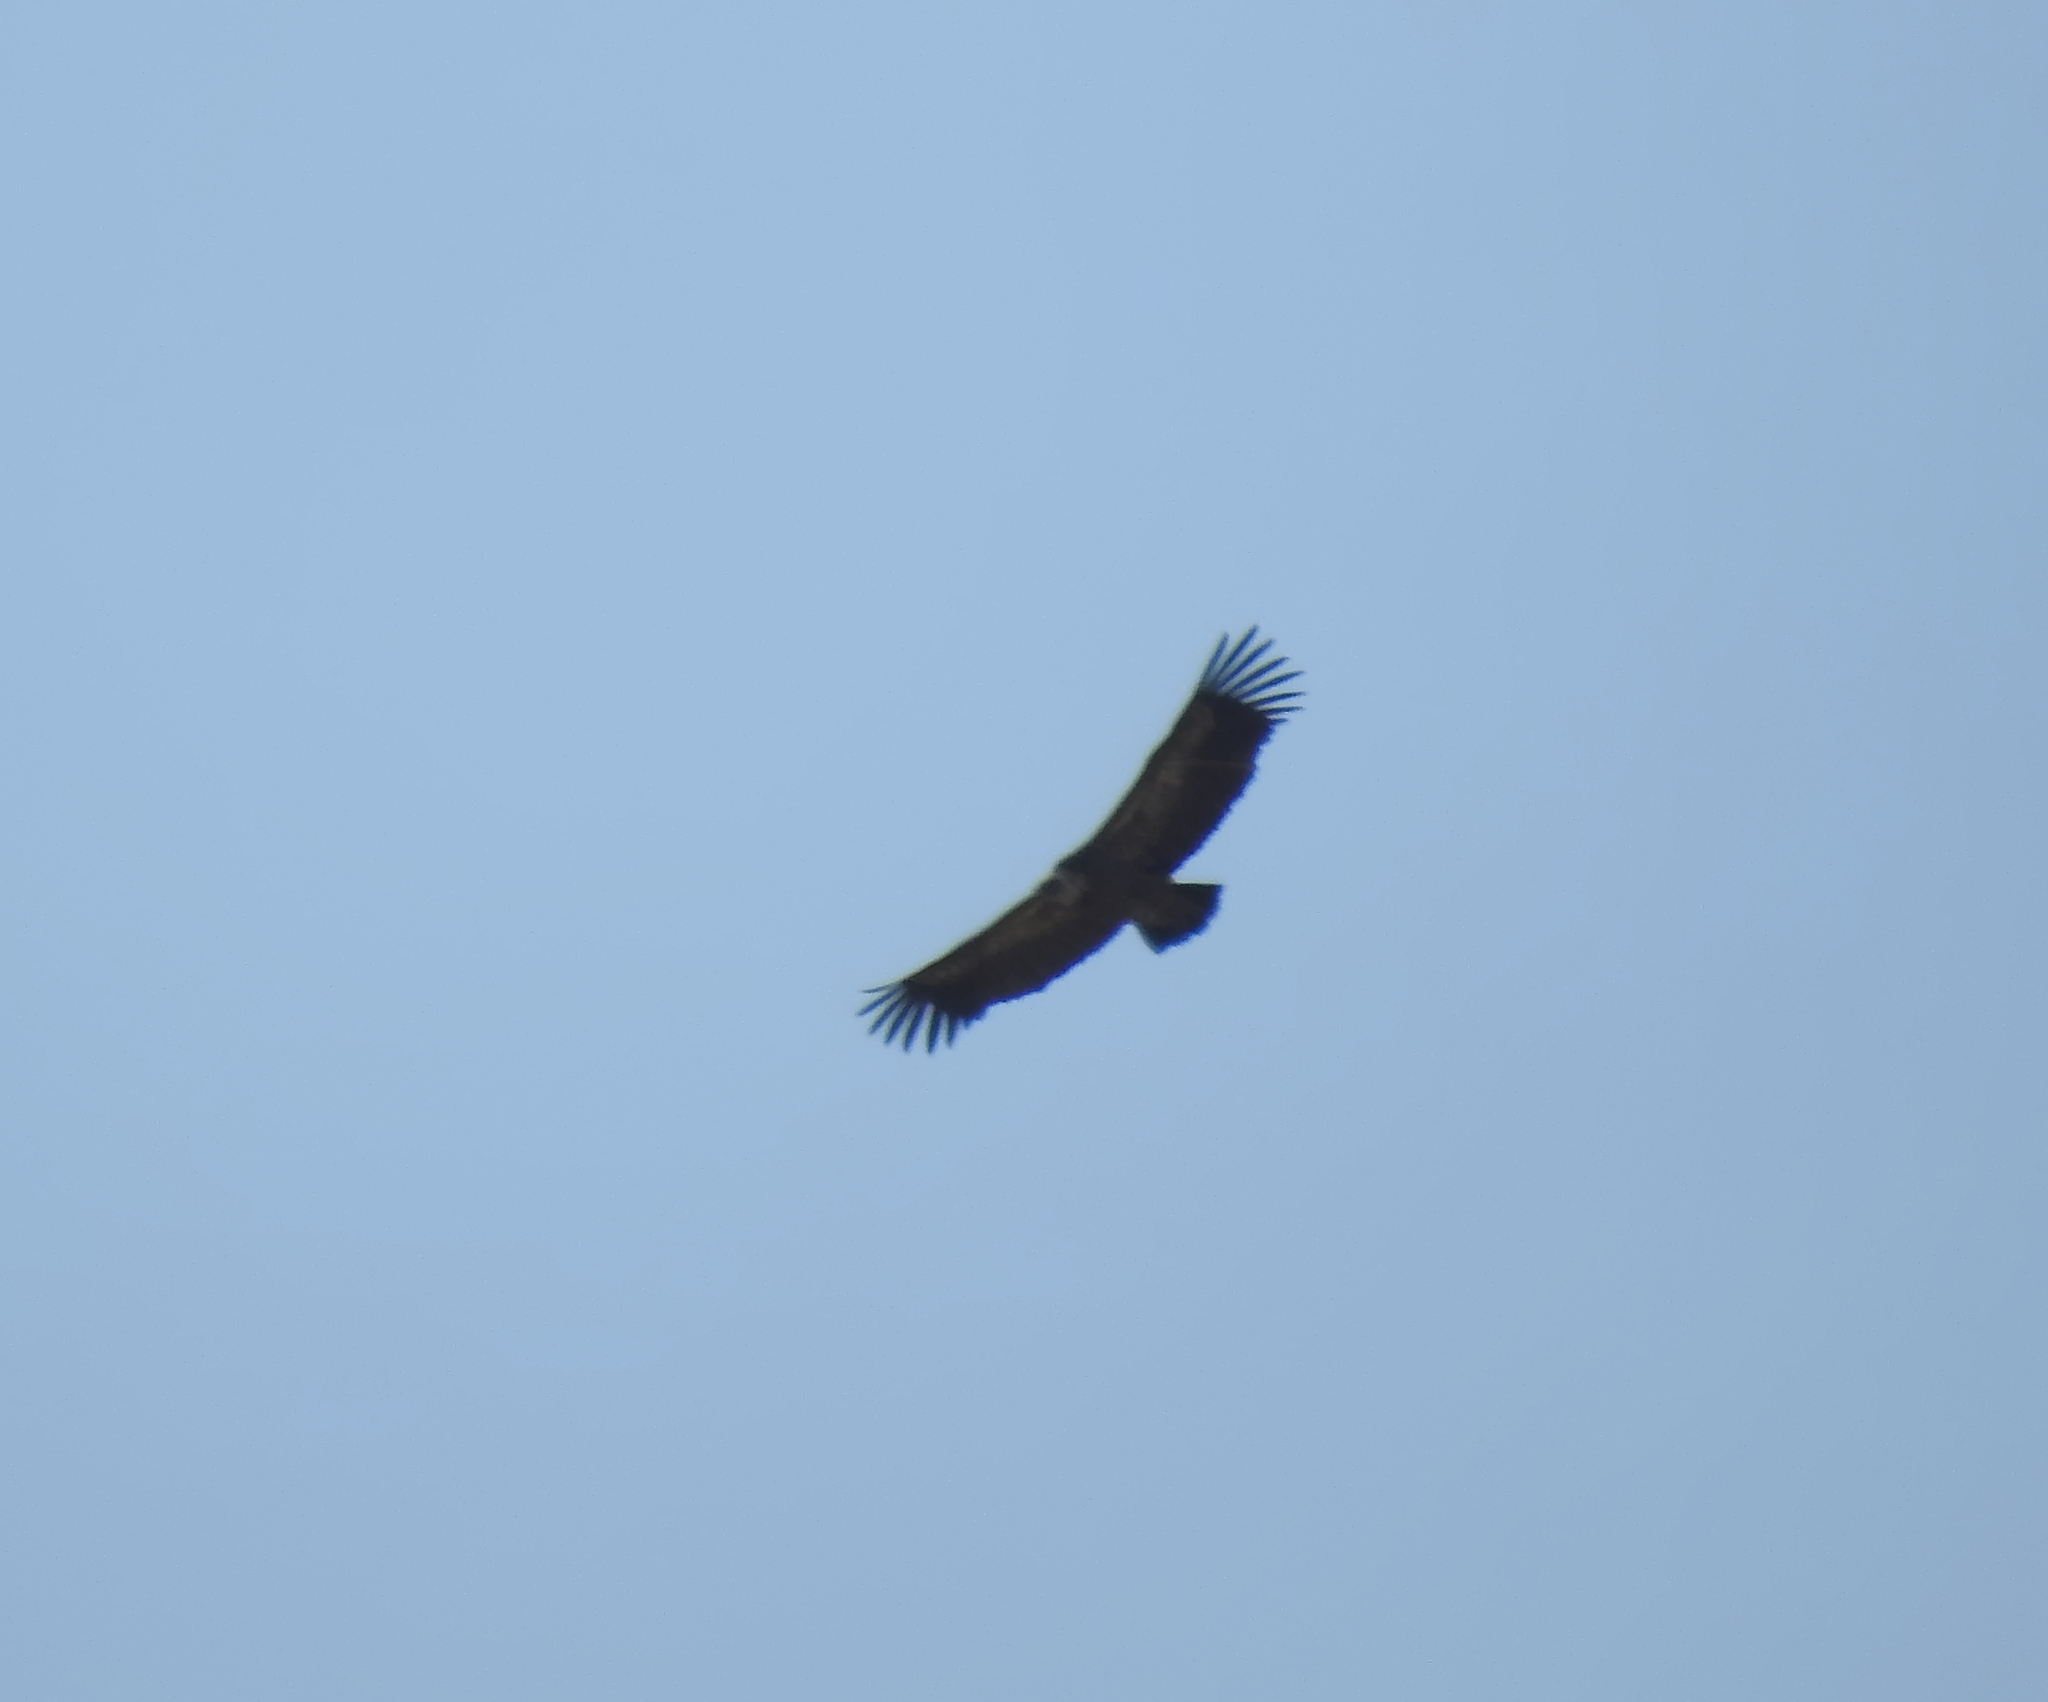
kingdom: Animalia
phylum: Chordata
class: Aves
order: Accipitriformes
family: Accipitridae
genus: Gyps
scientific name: Gyps fulvus
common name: Griffon vulture
